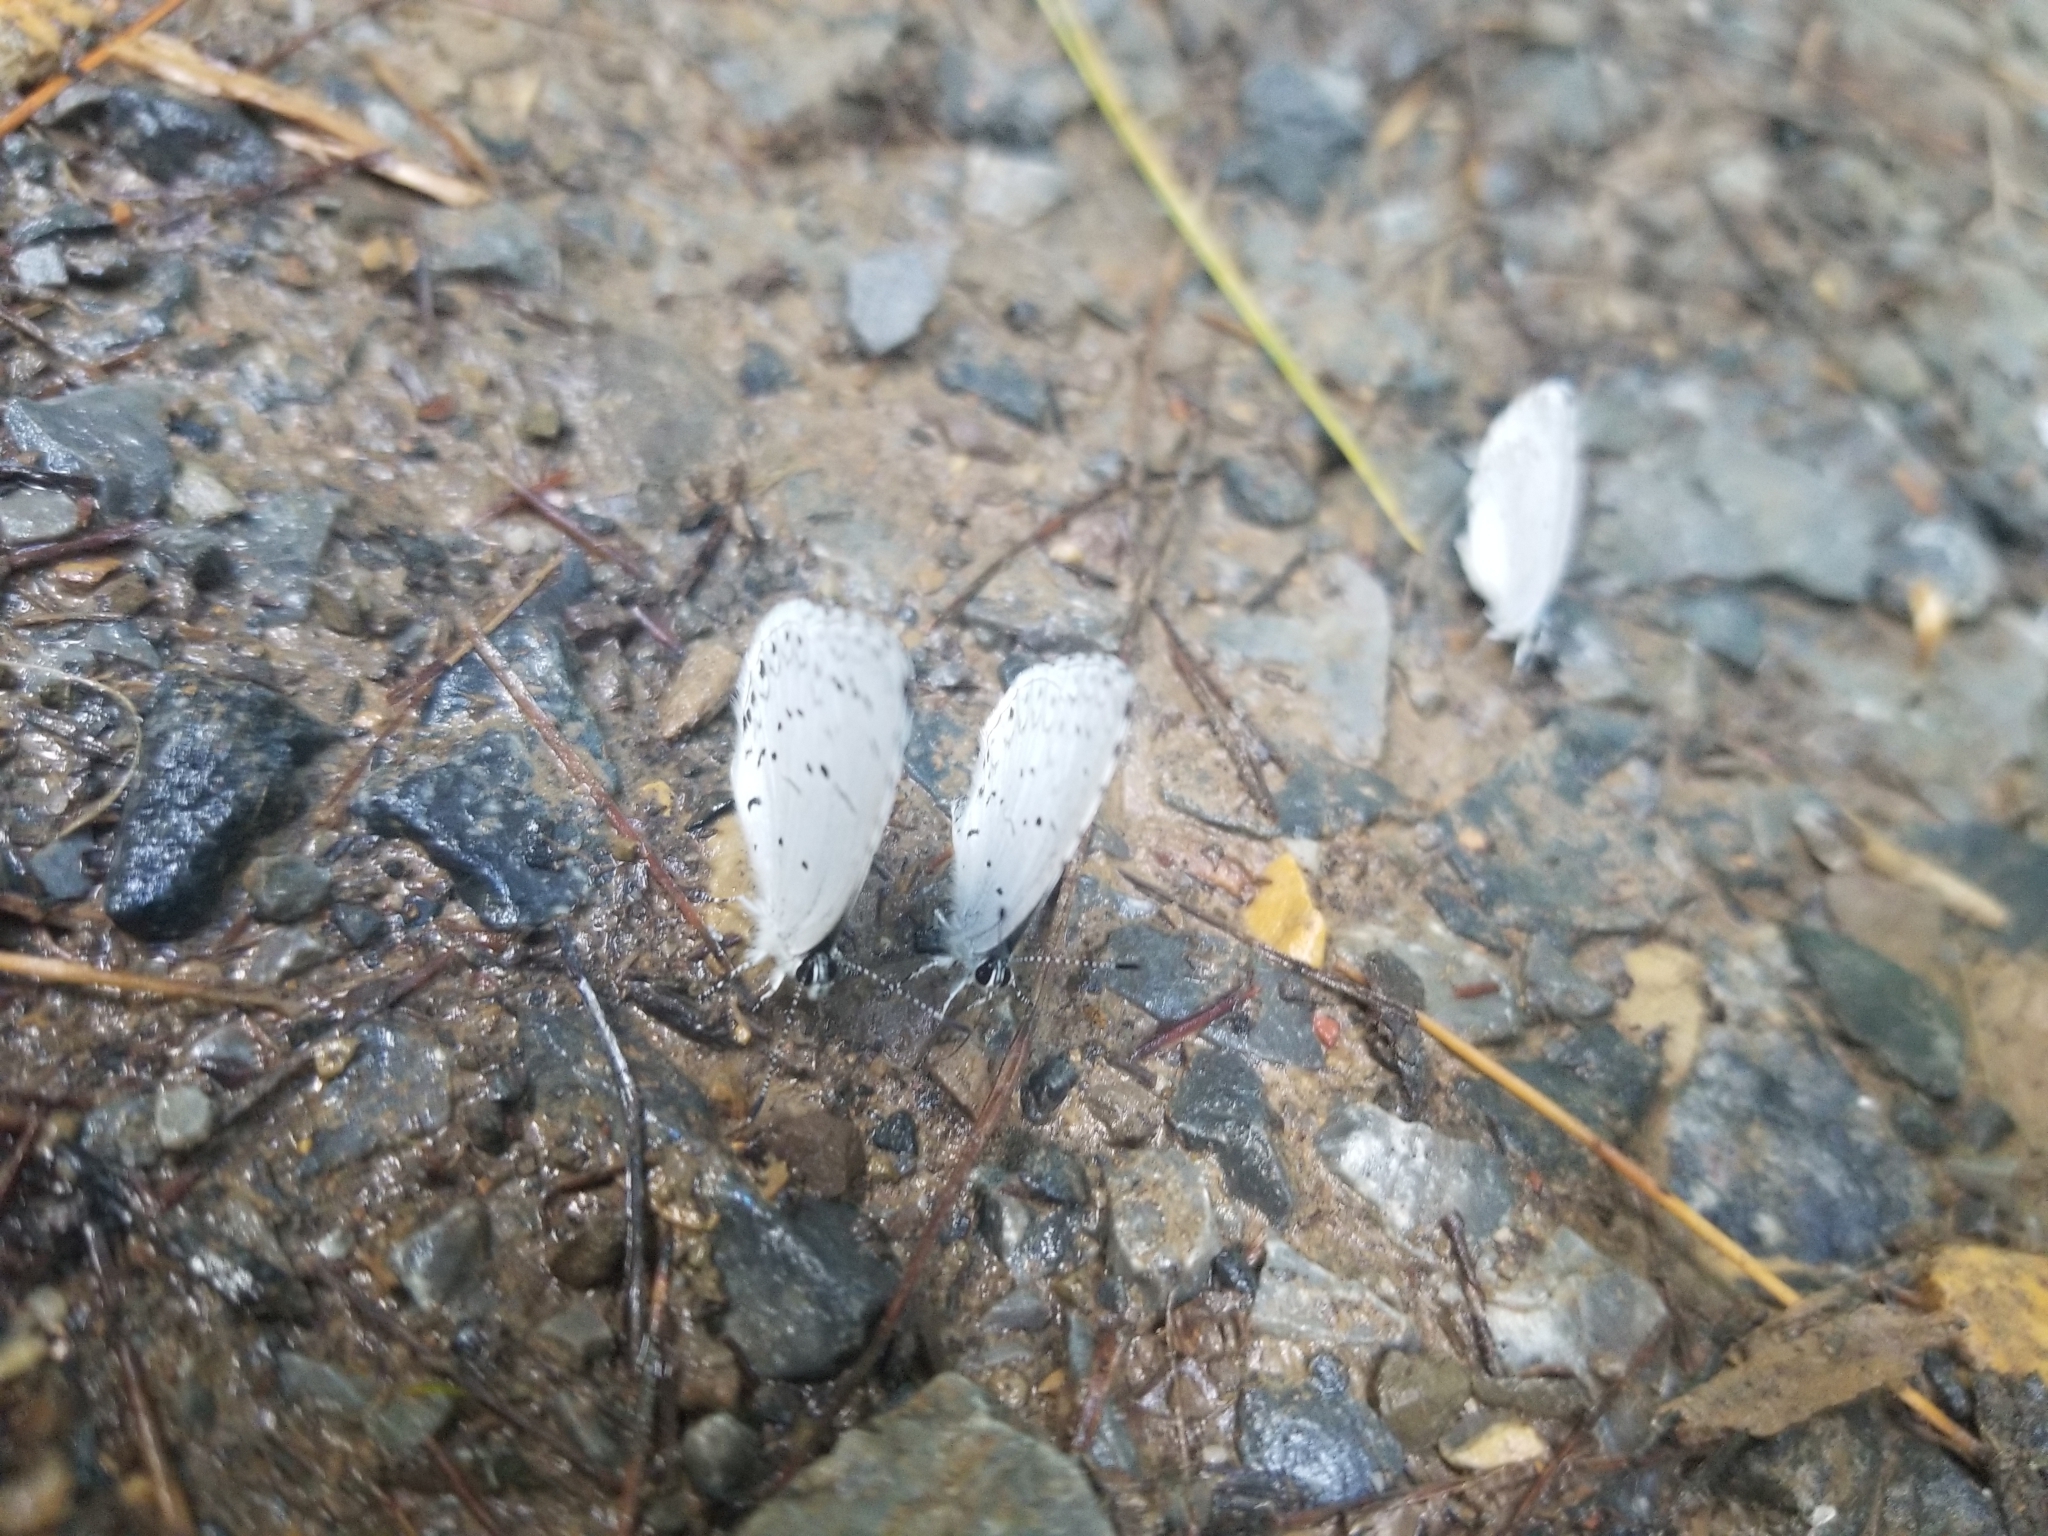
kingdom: Animalia
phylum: Arthropoda
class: Insecta
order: Lepidoptera
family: Lycaenidae
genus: Cyaniris
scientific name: Cyaniris neglecta
